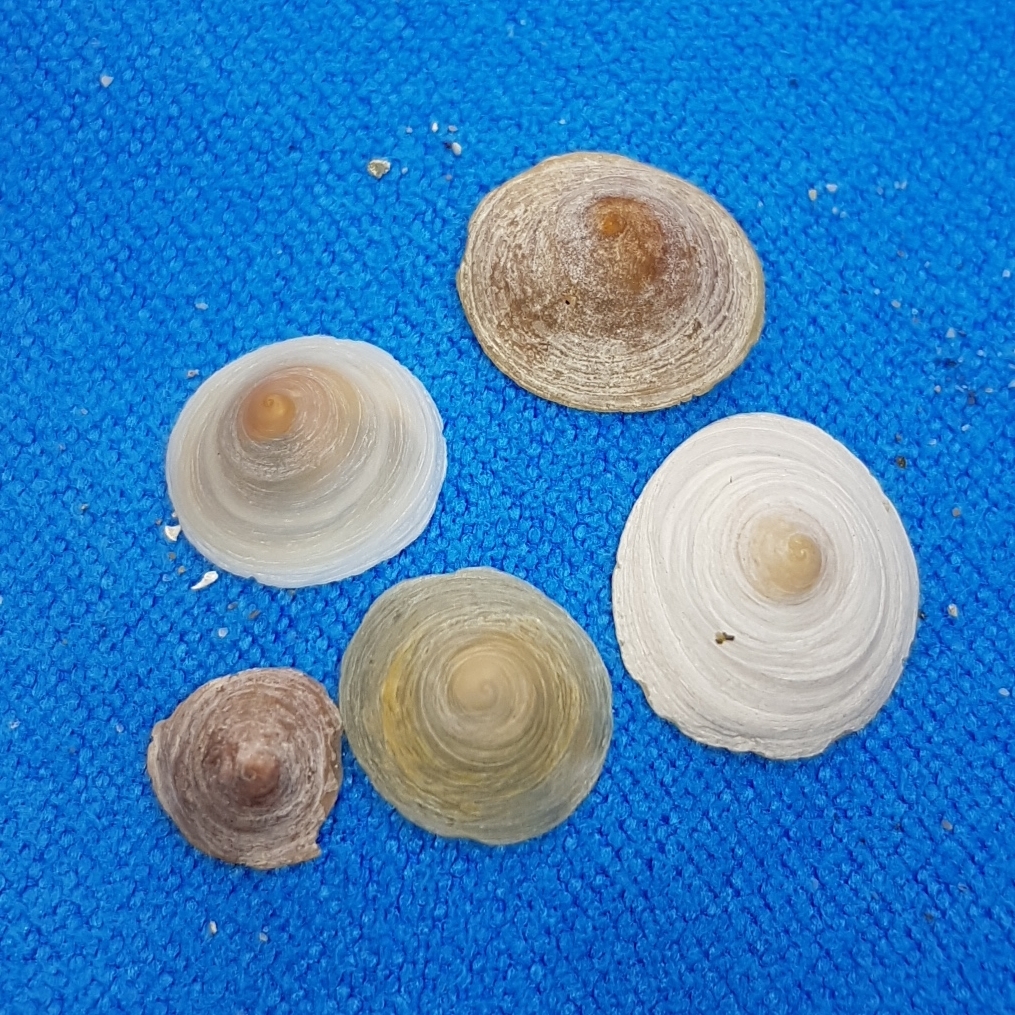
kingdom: Animalia
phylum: Mollusca
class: Gastropoda
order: Littorinimorpha
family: Calyptraeidae
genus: Calyptraea
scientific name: Calyptraea chinensis
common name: Chinaman's hat
